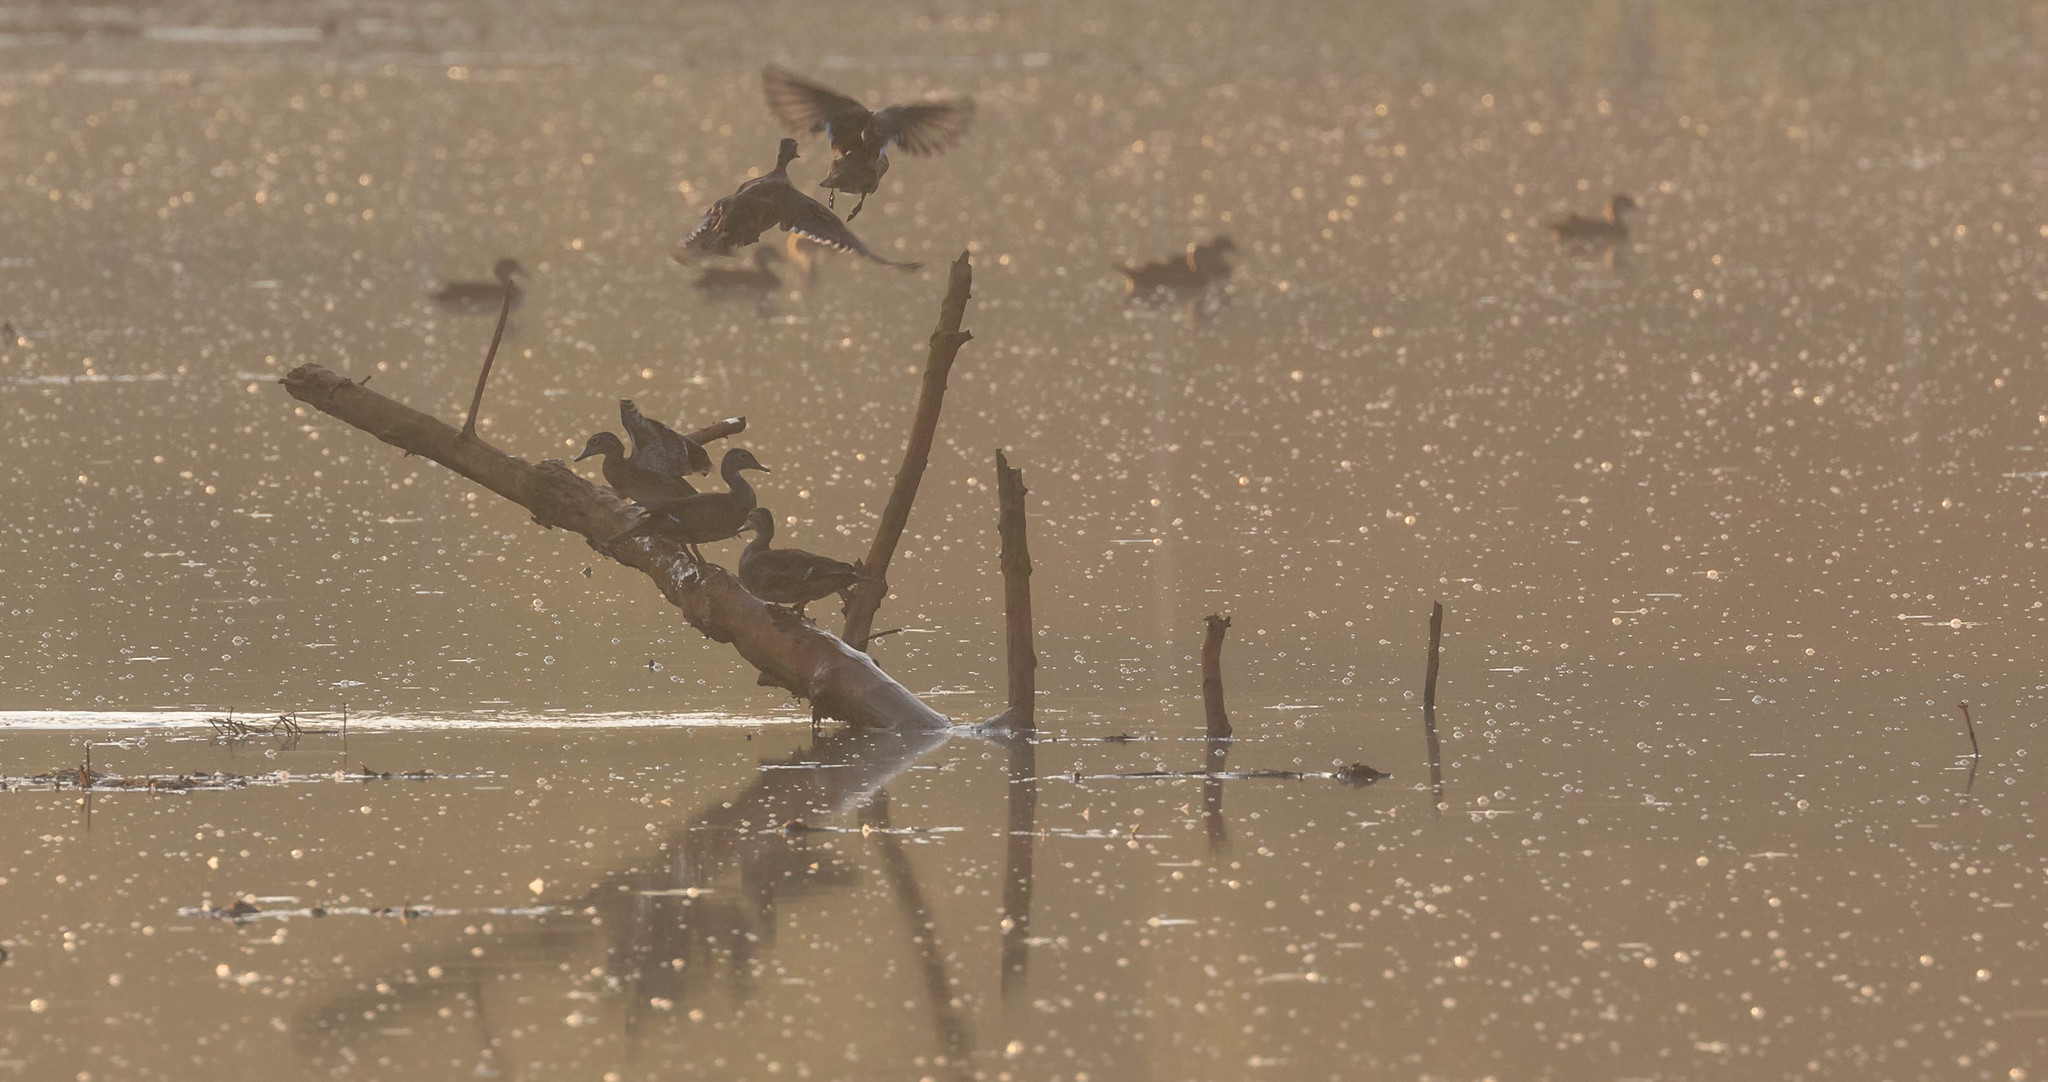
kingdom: Animalia
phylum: Chordata
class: Aves
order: Anseriformes
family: Anatidae
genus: Aix
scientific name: Aix sponsa
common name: Wood duck
